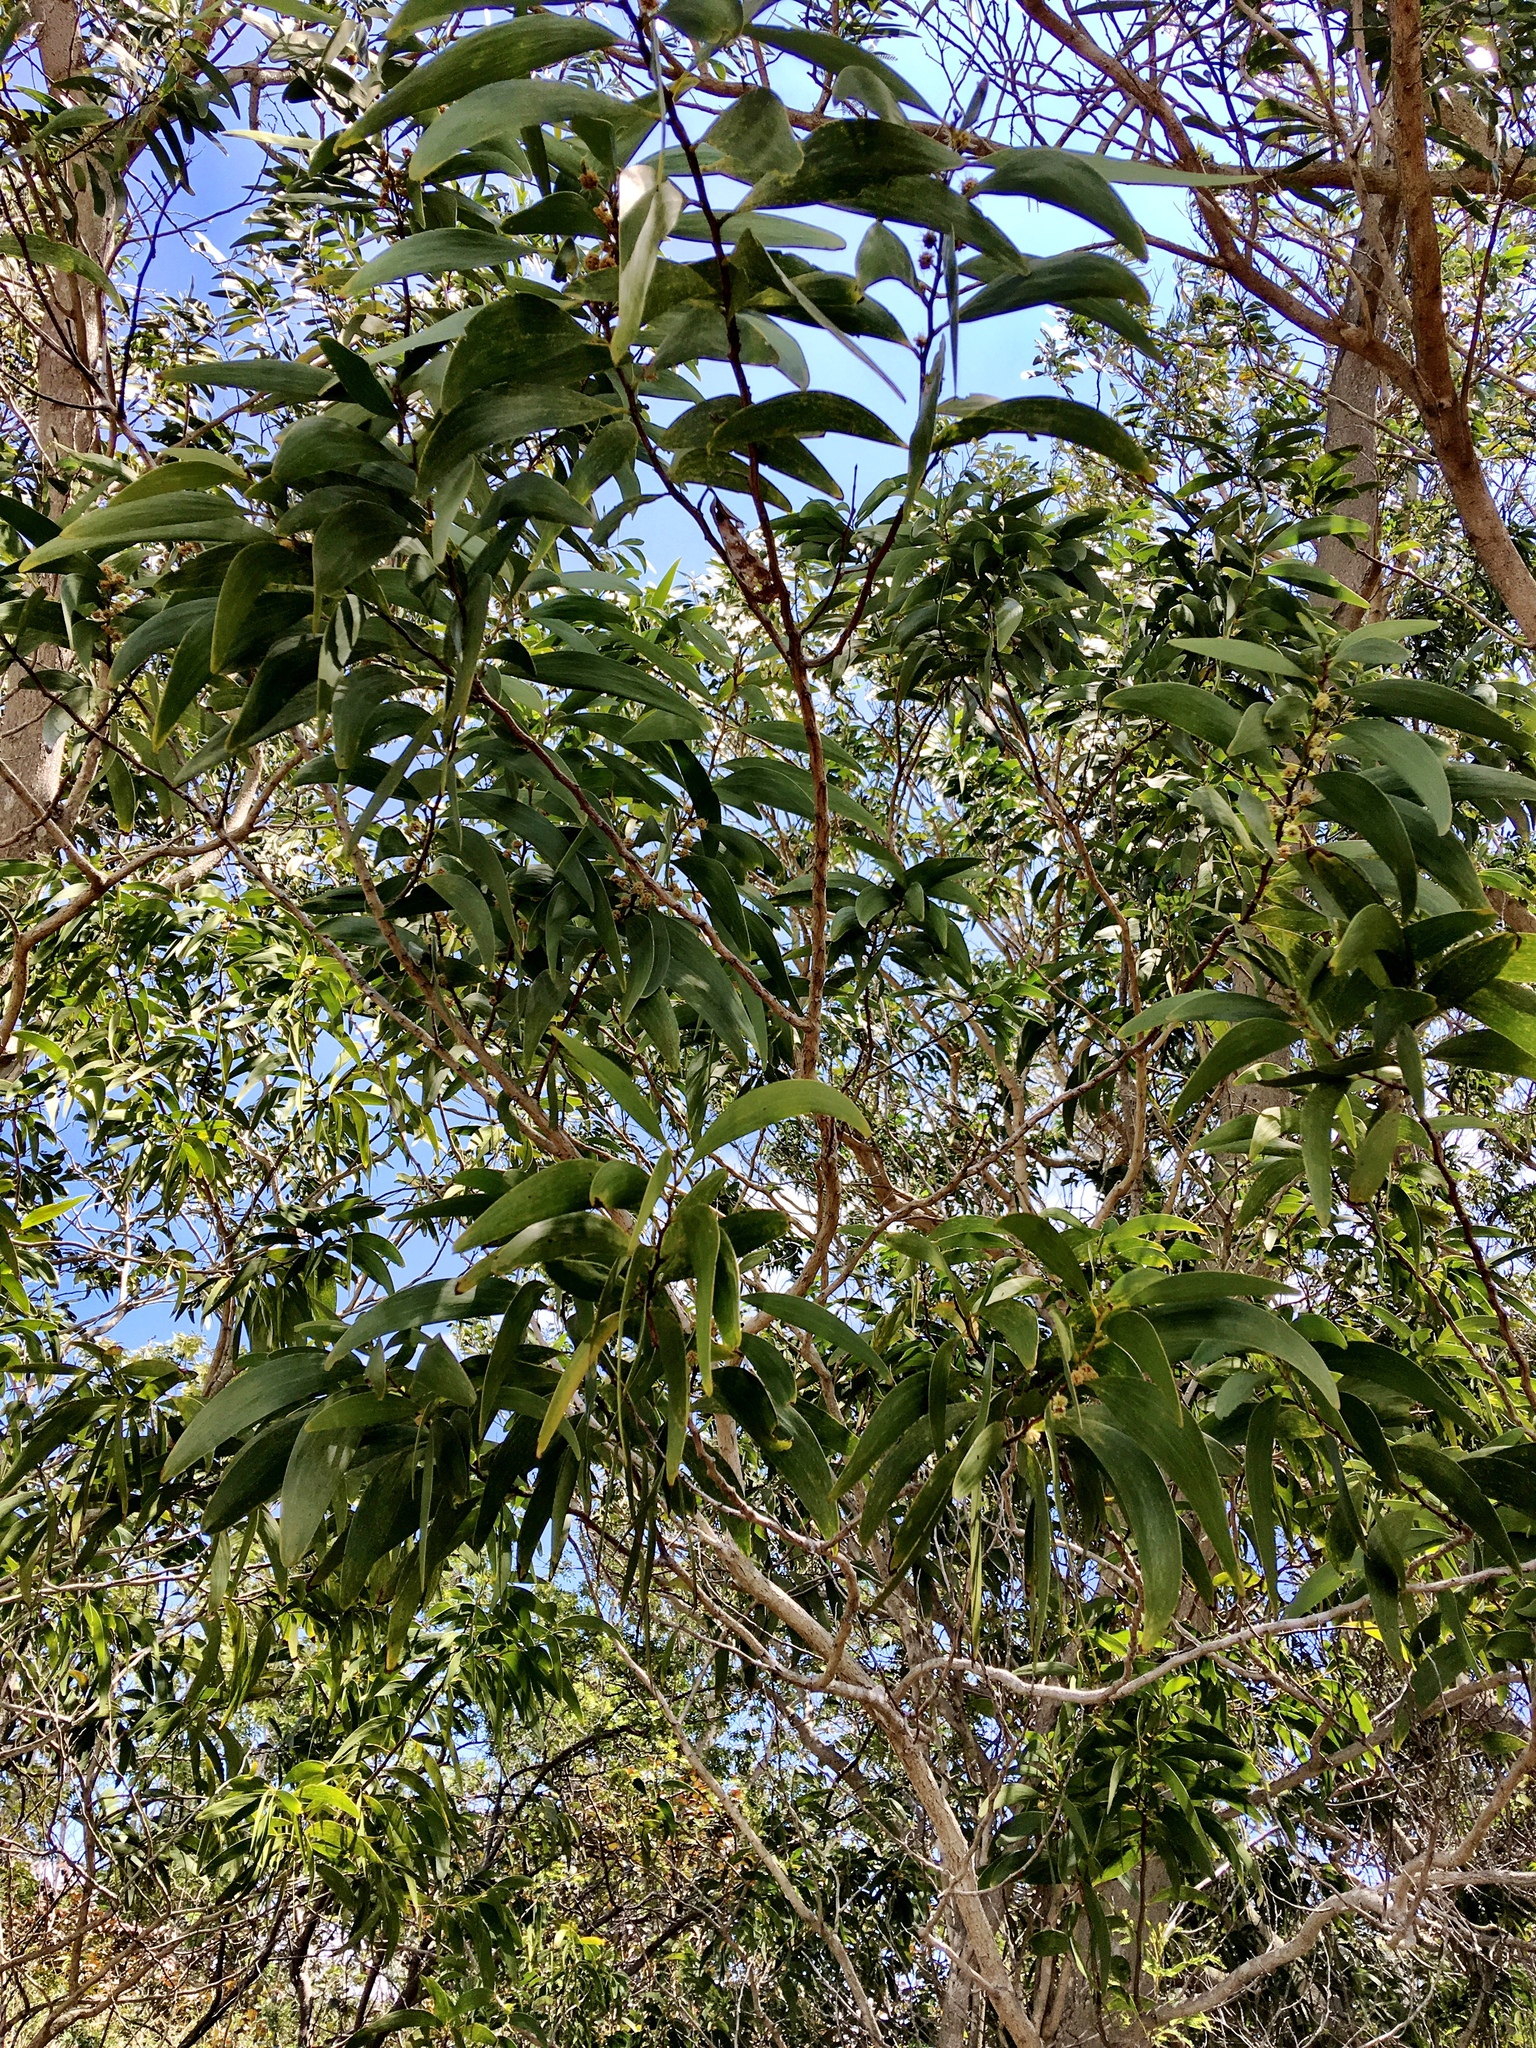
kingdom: Plantae
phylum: Tracheophyta
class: Magnoliopsida
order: Fabales
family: Fabaceae
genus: Acacia
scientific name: Acacia koa
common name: Gray koa
